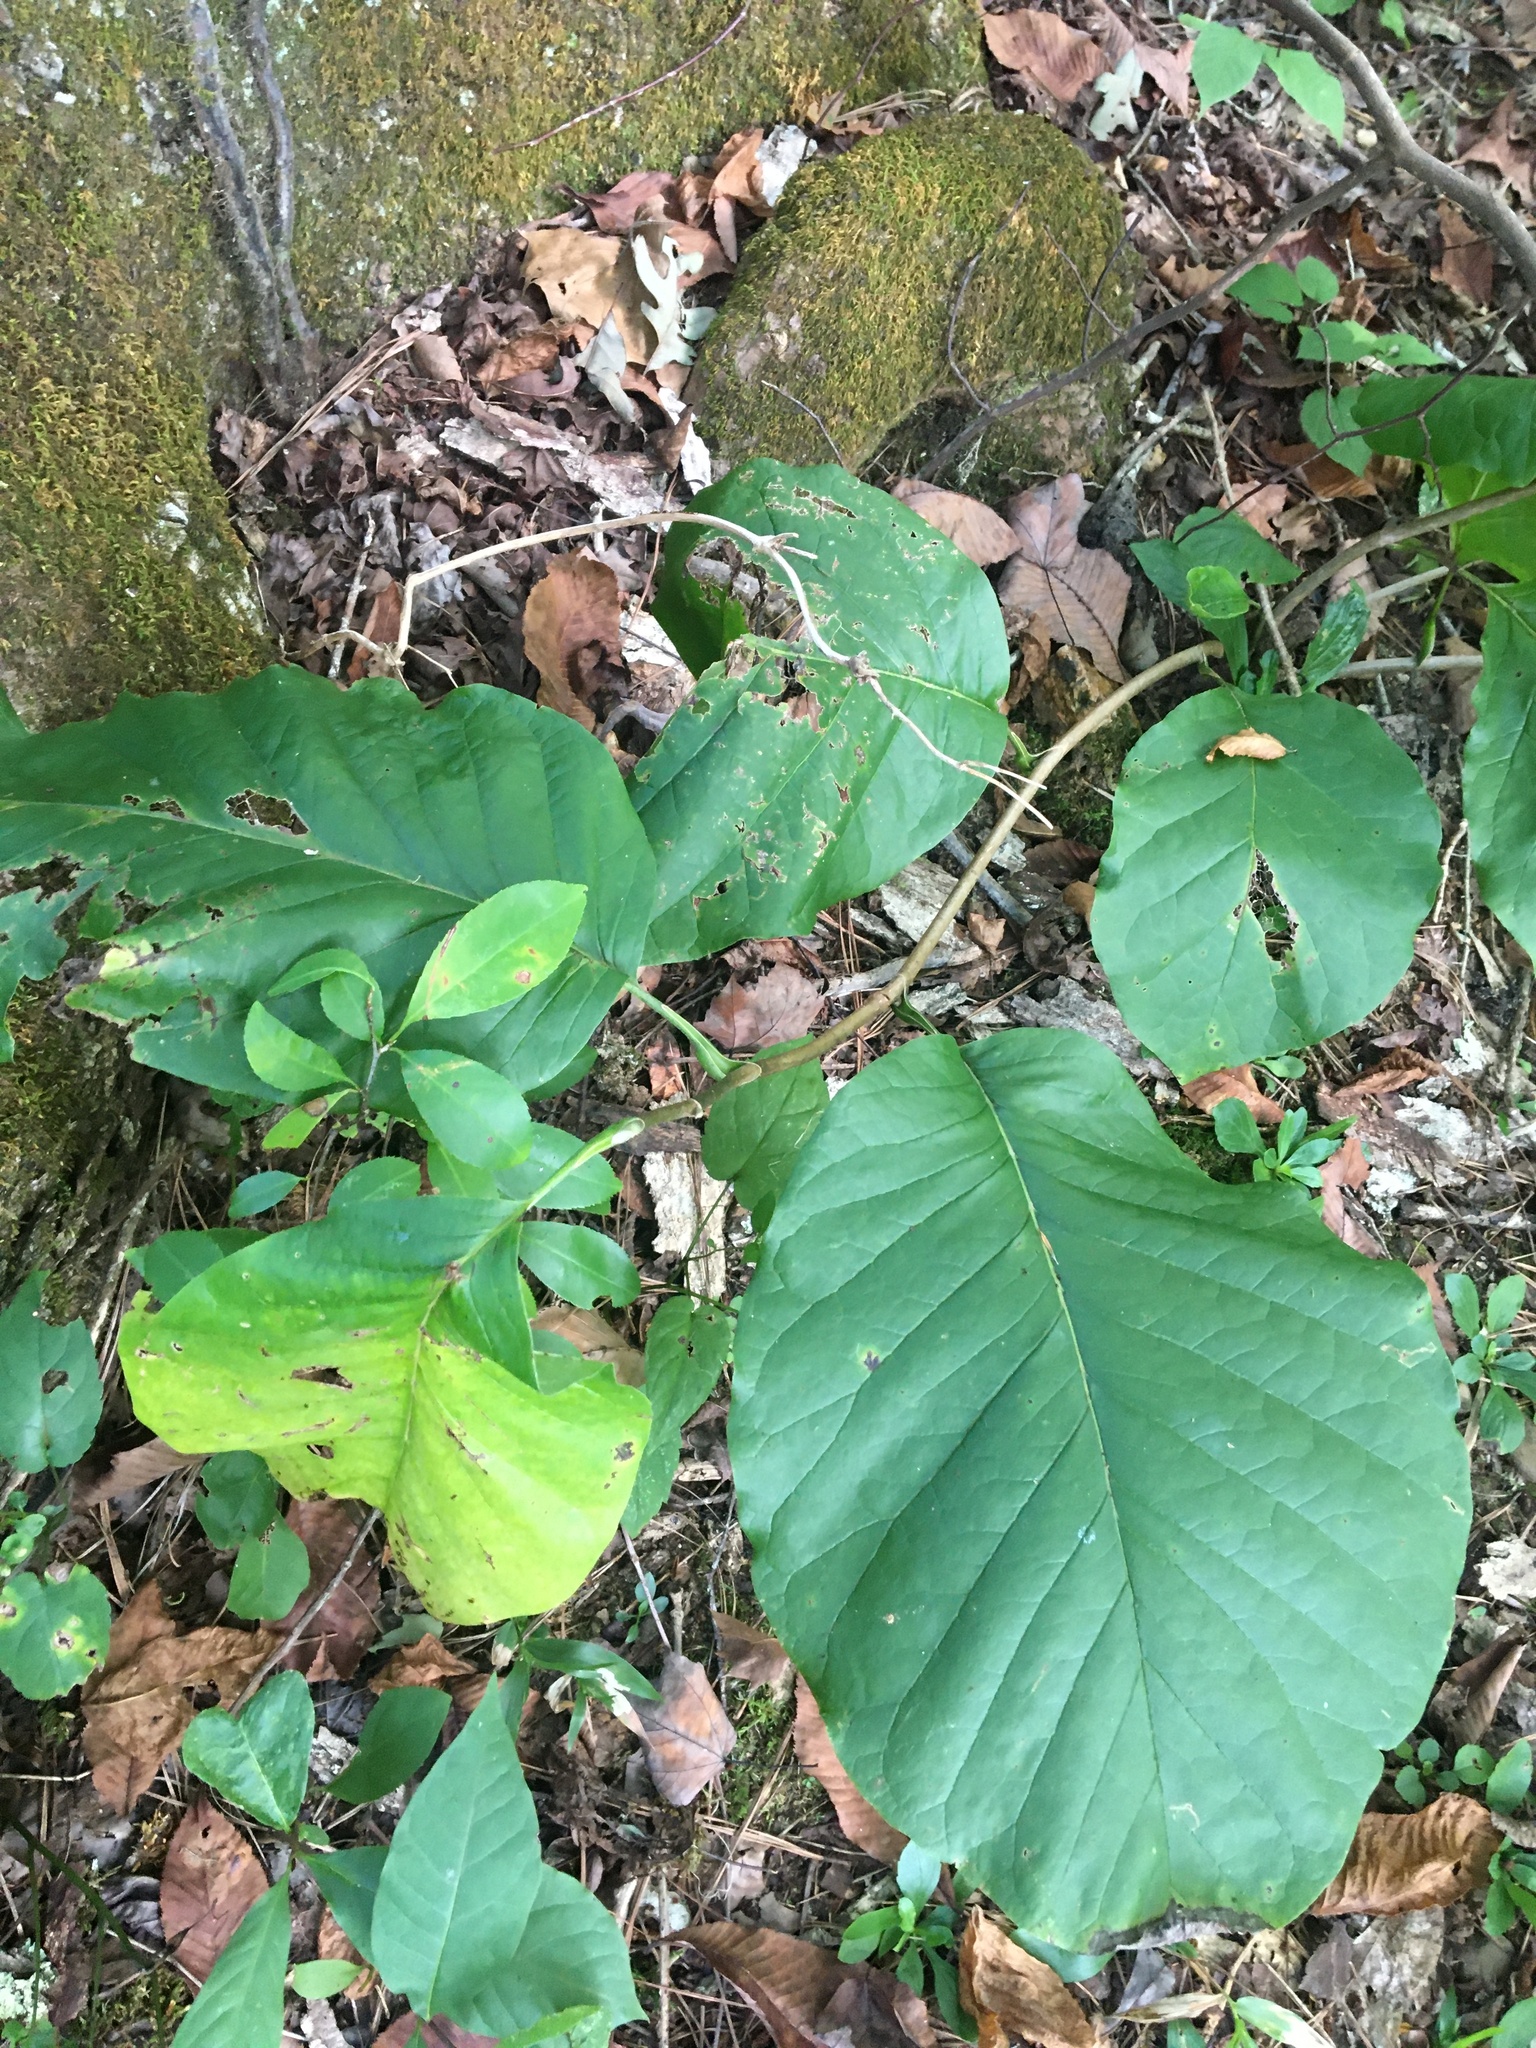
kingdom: Plantae
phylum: Tracheophyta
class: Magnoliopsida
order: Magnoliales
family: Magnoliaceae
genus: Magnolia
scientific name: Magnolia acuminata
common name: Cucumber magnolia
